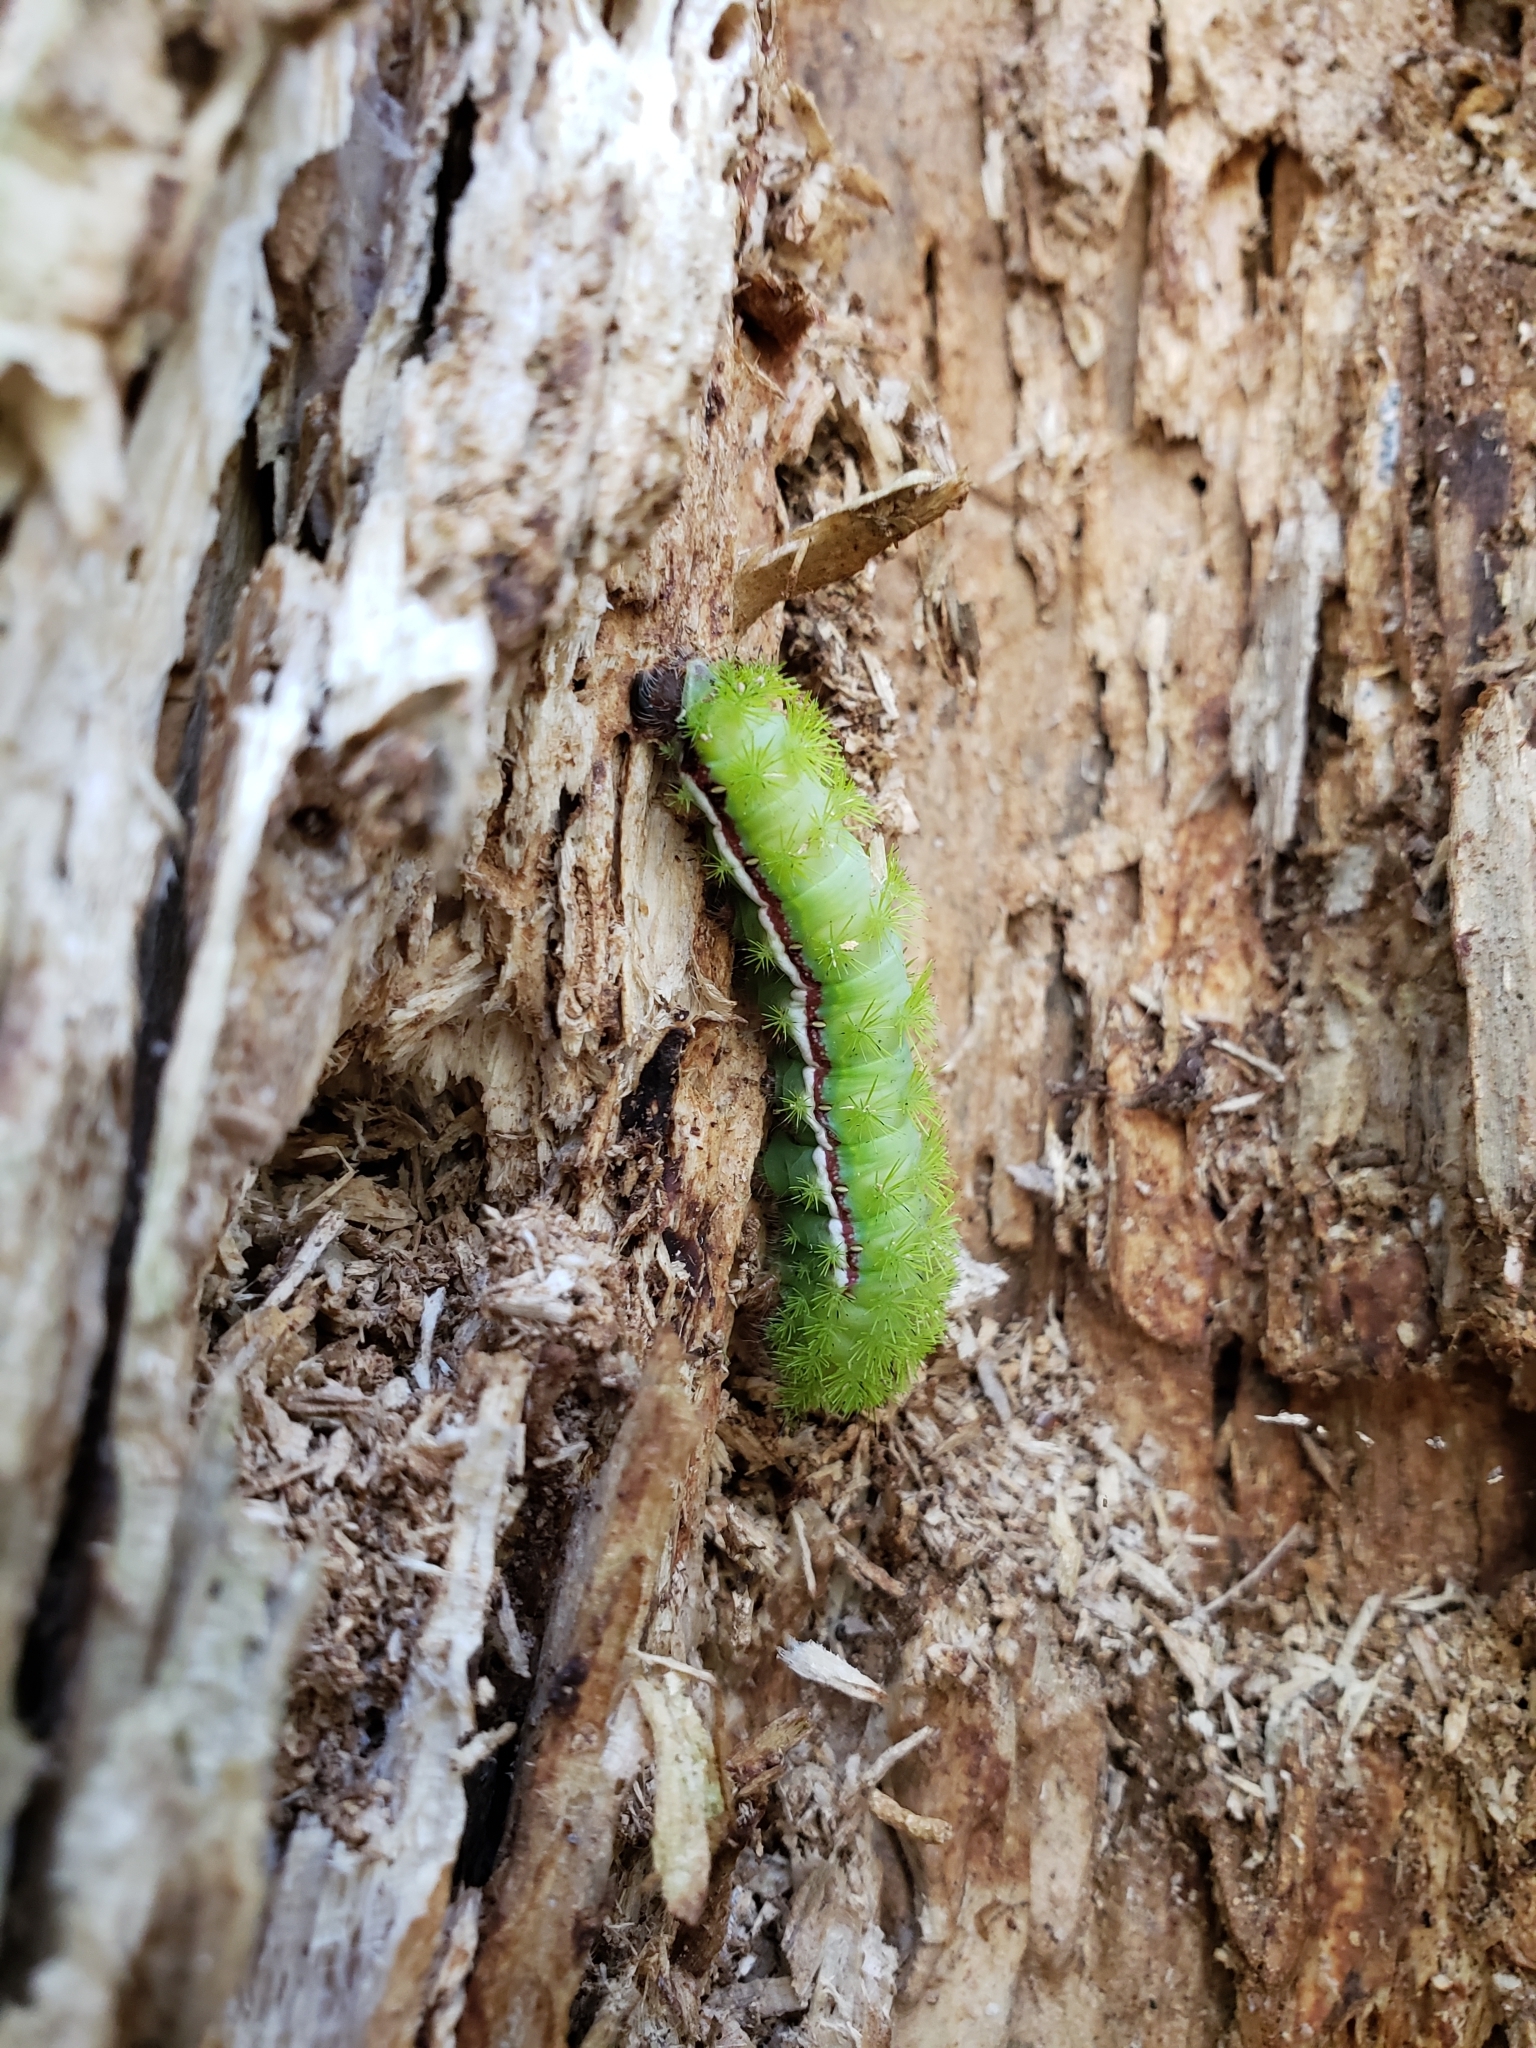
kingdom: Animalia
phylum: Arthropoda
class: Insecta
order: Lepidoptera
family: Saturniidae
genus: Automeris
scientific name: Automeris io
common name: Io moth
